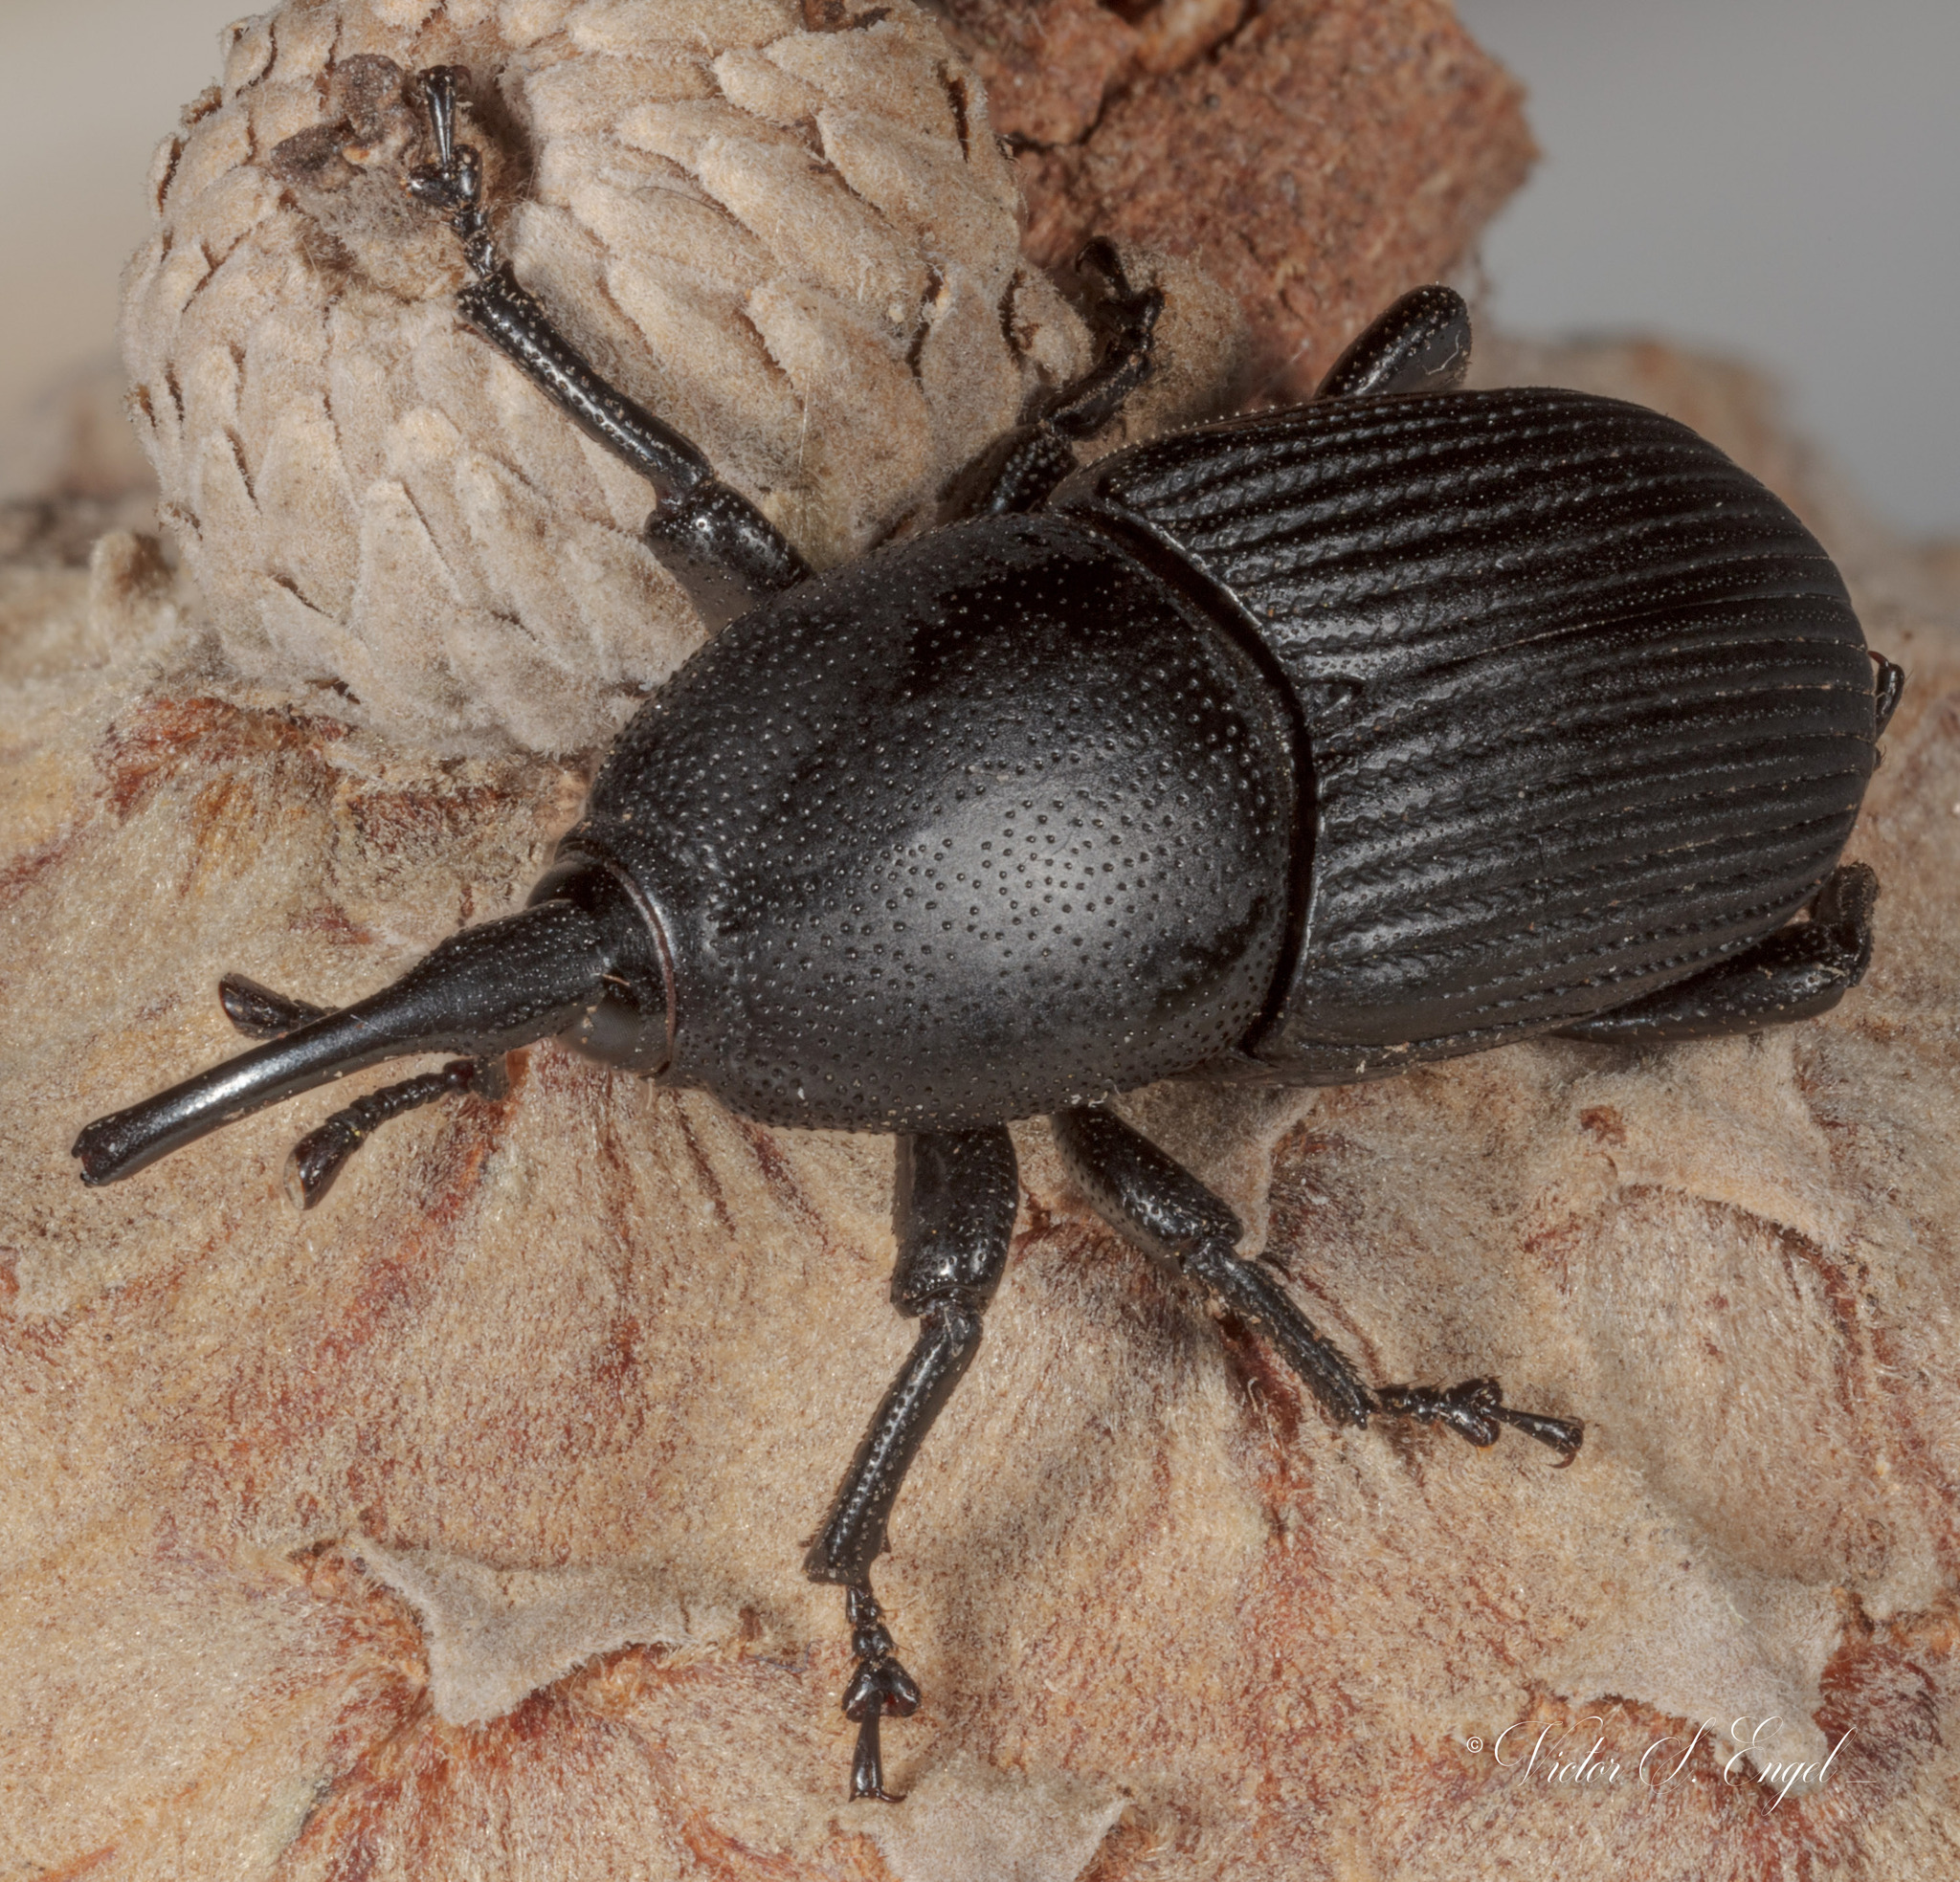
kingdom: Animalia
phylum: Arthropoda
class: Insecta
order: Coleoptera
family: Dryophthoridae
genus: Scyphophorus
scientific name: Scyphophorus acupunctatus
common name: Weevil
